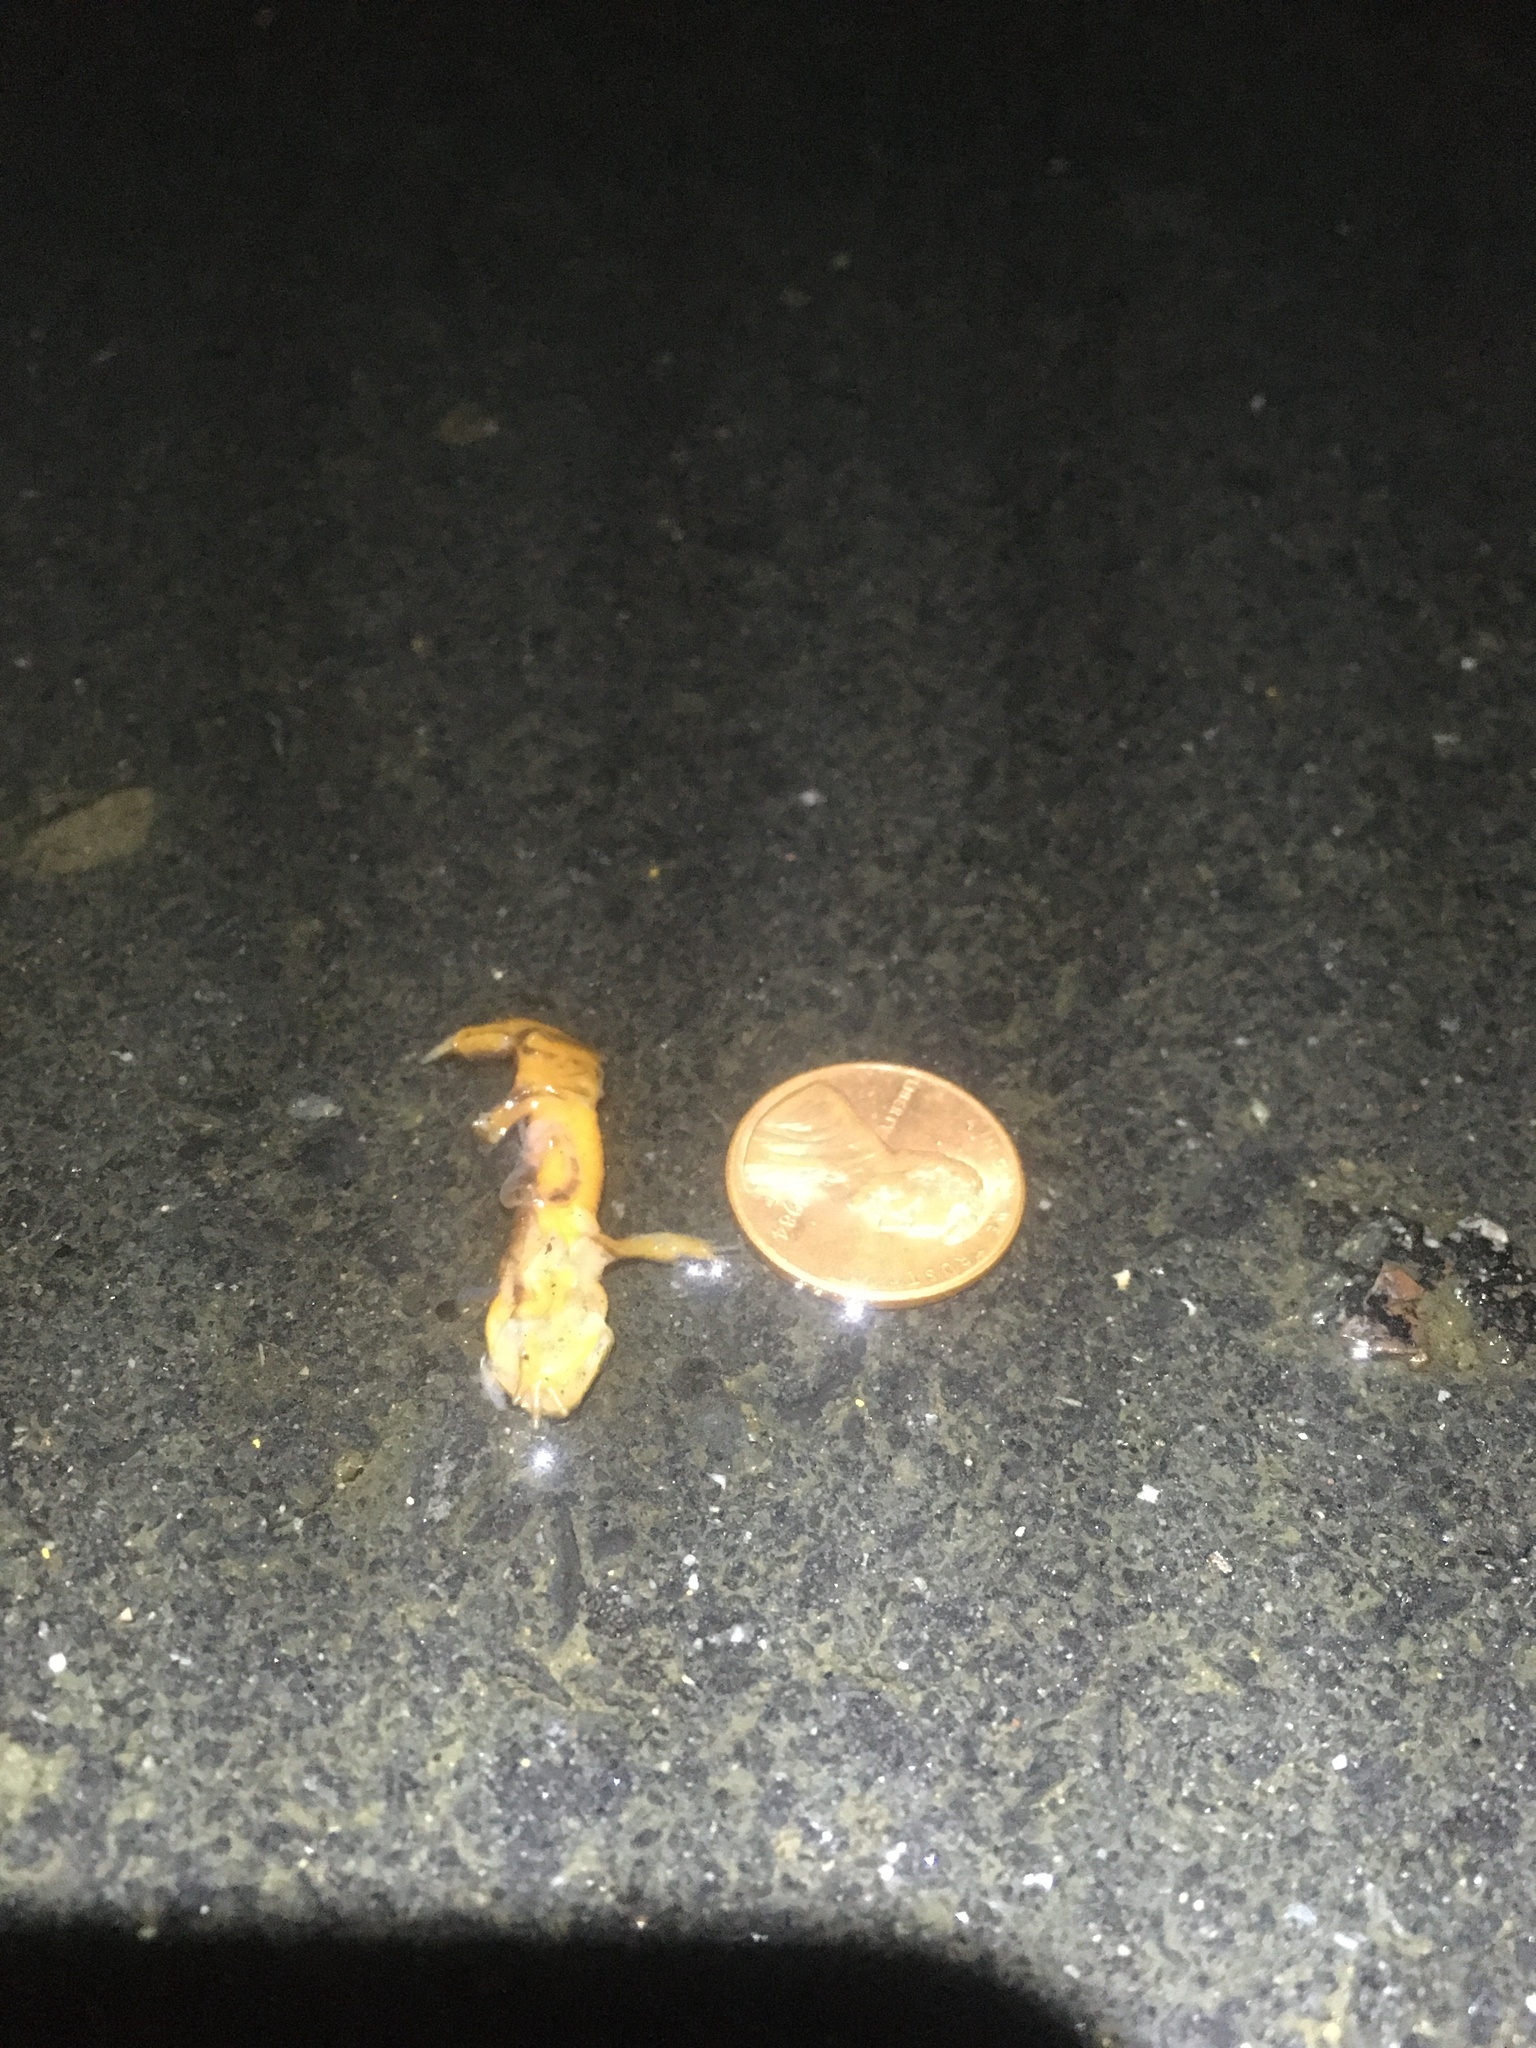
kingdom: Animalia
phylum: Chordata
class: Amphibia
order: Caudata
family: Salamandridae
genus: Taricha
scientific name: Taricha
